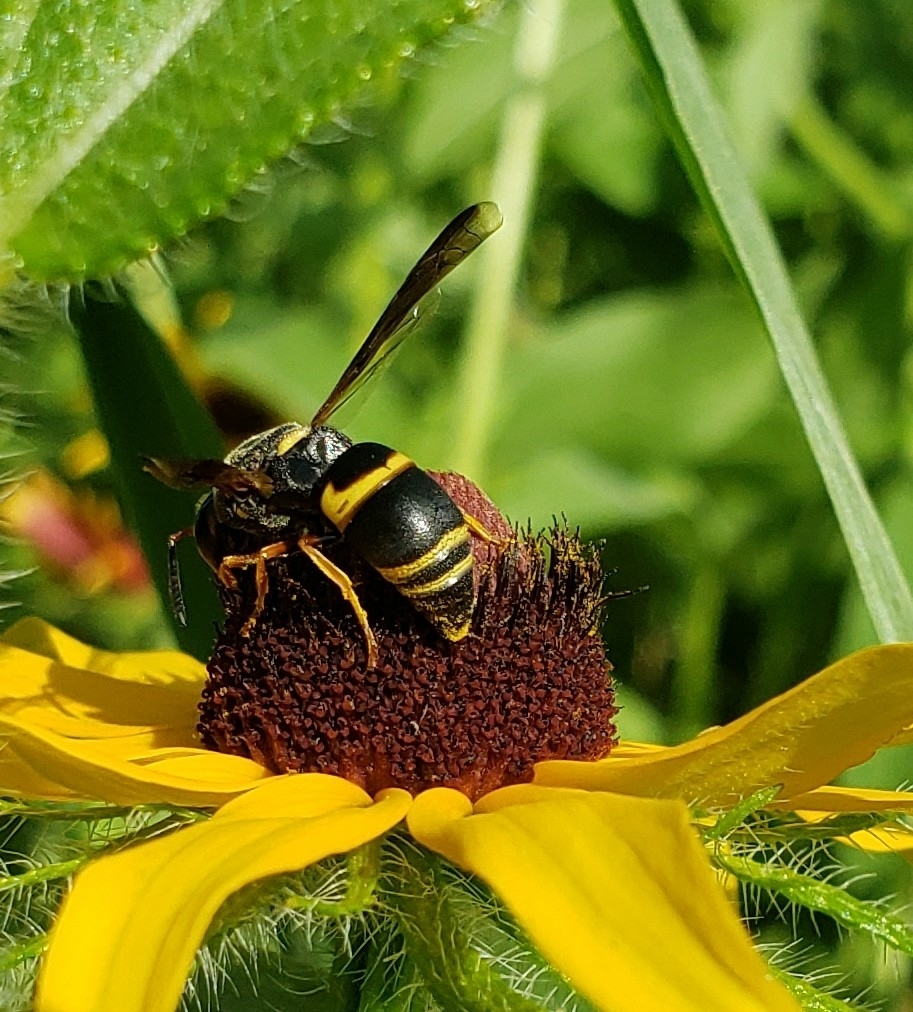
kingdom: Animalia
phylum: Arthropoda
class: Insecta
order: Hymenoptera
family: Eumenidae
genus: Euodynerus
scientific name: Euodynerus hidalgo
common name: Wasp
